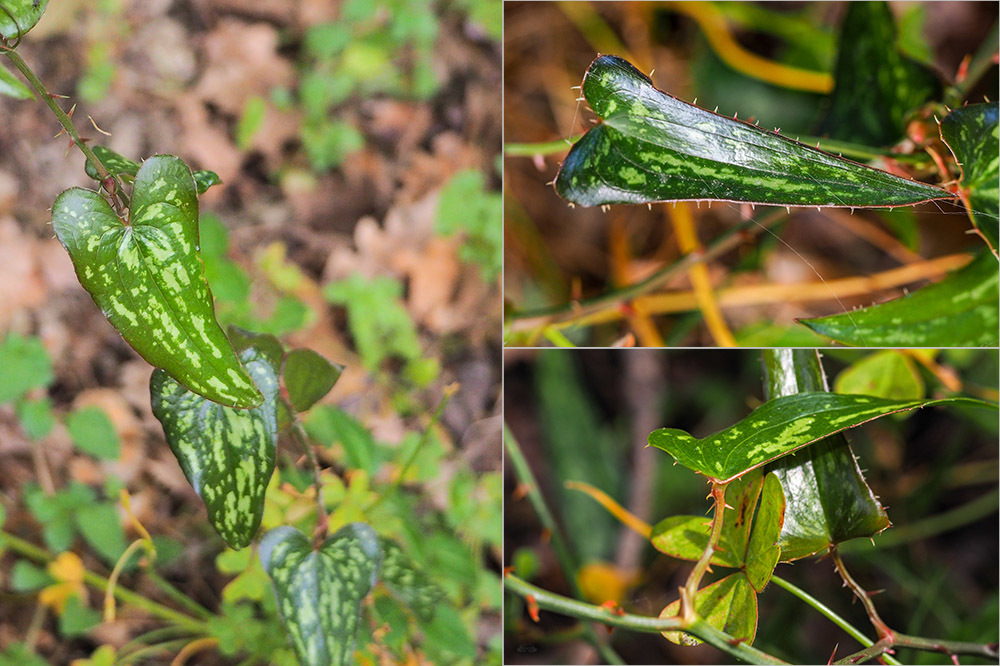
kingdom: Plantae
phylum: Tracheophyta
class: Liliopsida
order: Liliales
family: Smilacaceae
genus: Smilax
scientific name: Smilax aspera
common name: Common smilax
